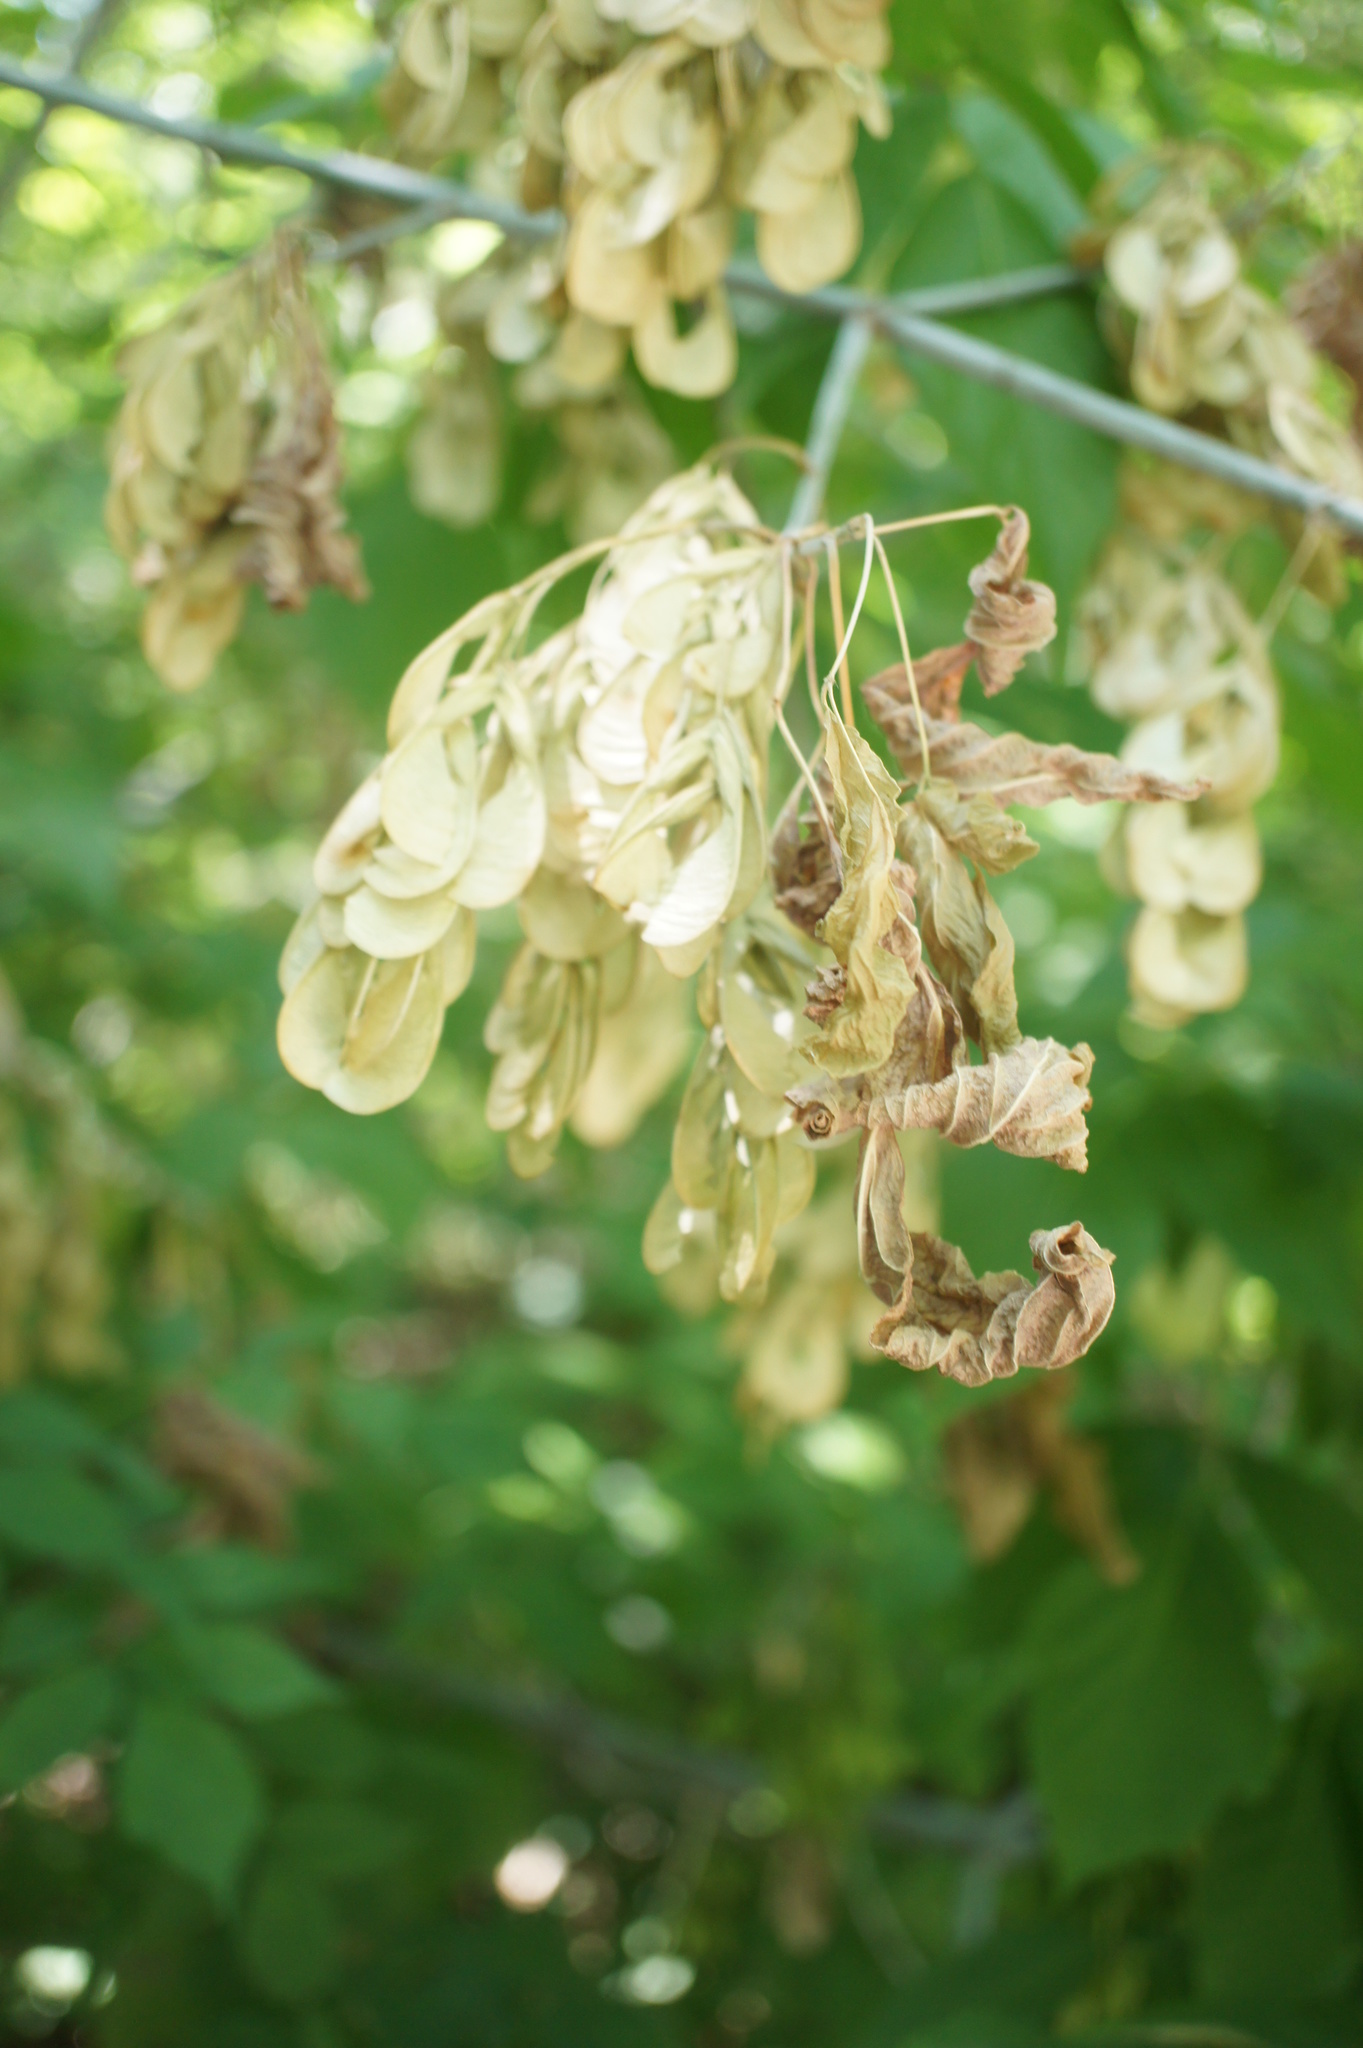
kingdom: Plantae
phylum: Tracheophyta
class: Magnoliopsida
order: Sapindales
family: Sapindaceae
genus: Acer
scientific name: Acer negundo
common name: Ashleaf maple
